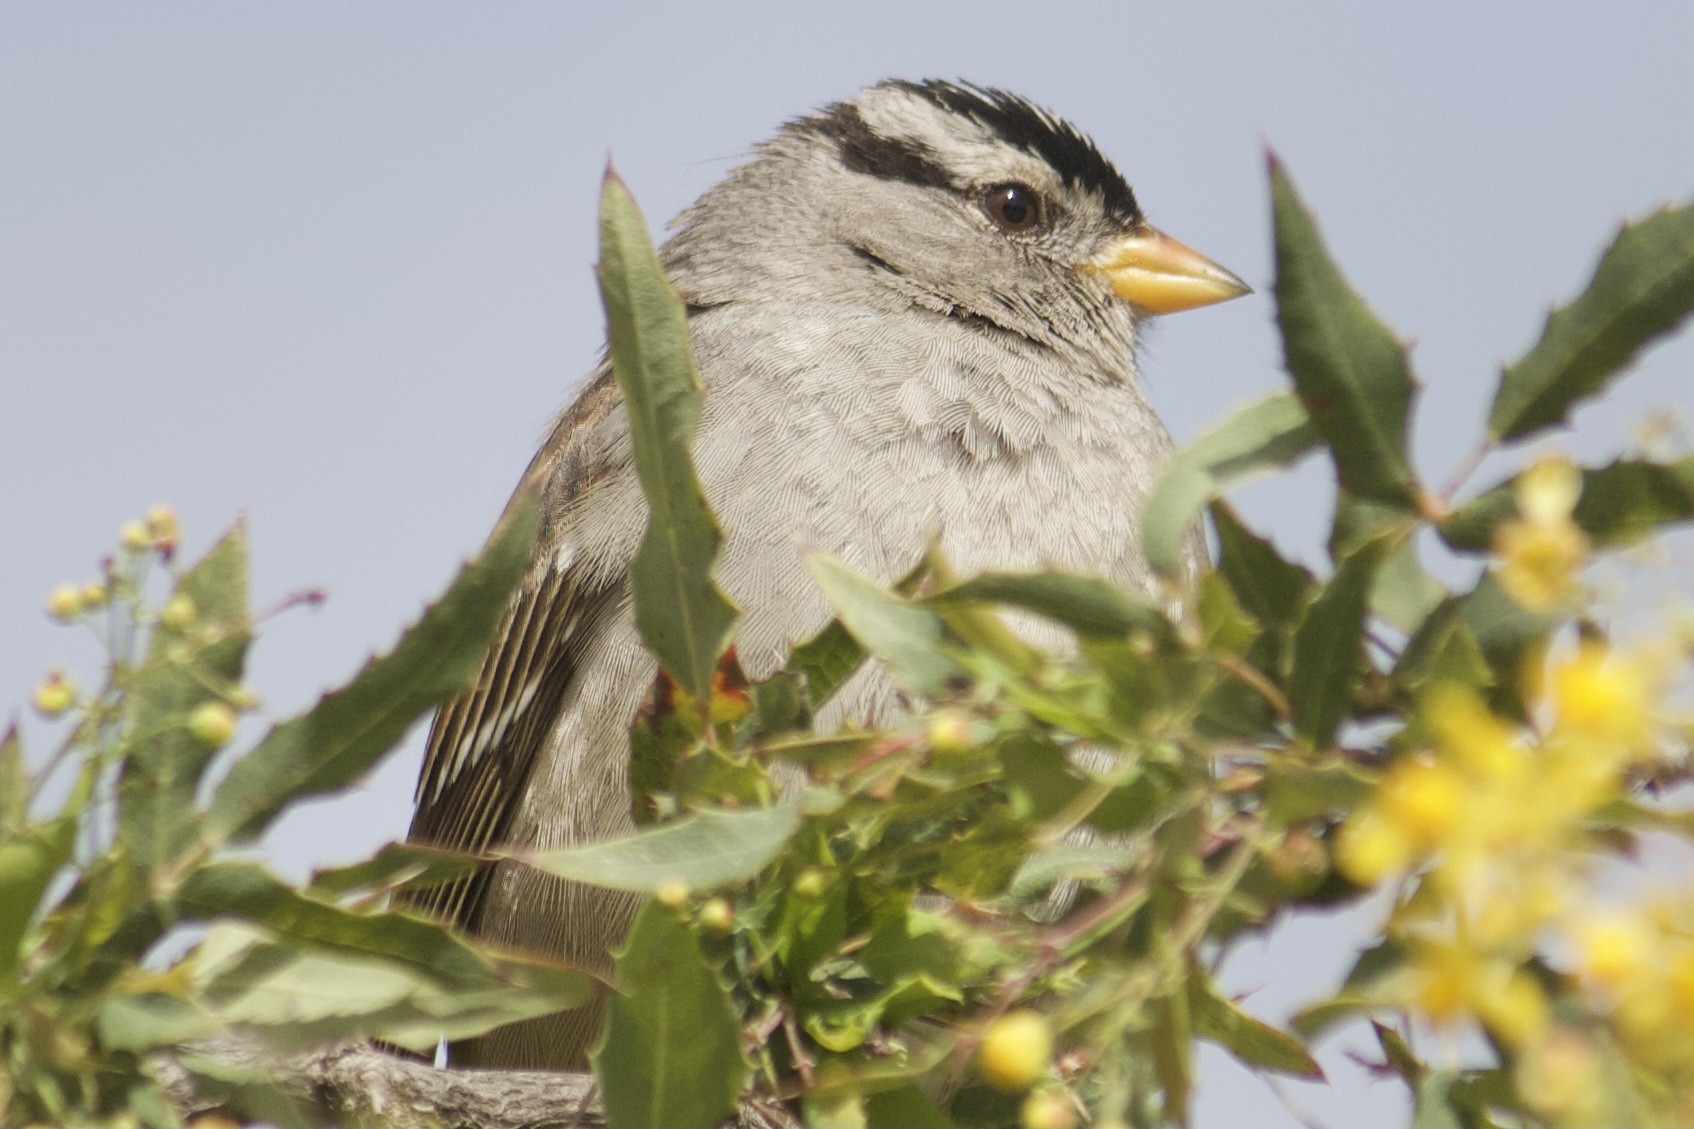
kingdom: Animalia
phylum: Chordata
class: Aves
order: Passeriformes
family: Passerellidae
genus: Zonotrichia
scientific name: Zonotrichia leucophrys
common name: White-crowned sparrow
